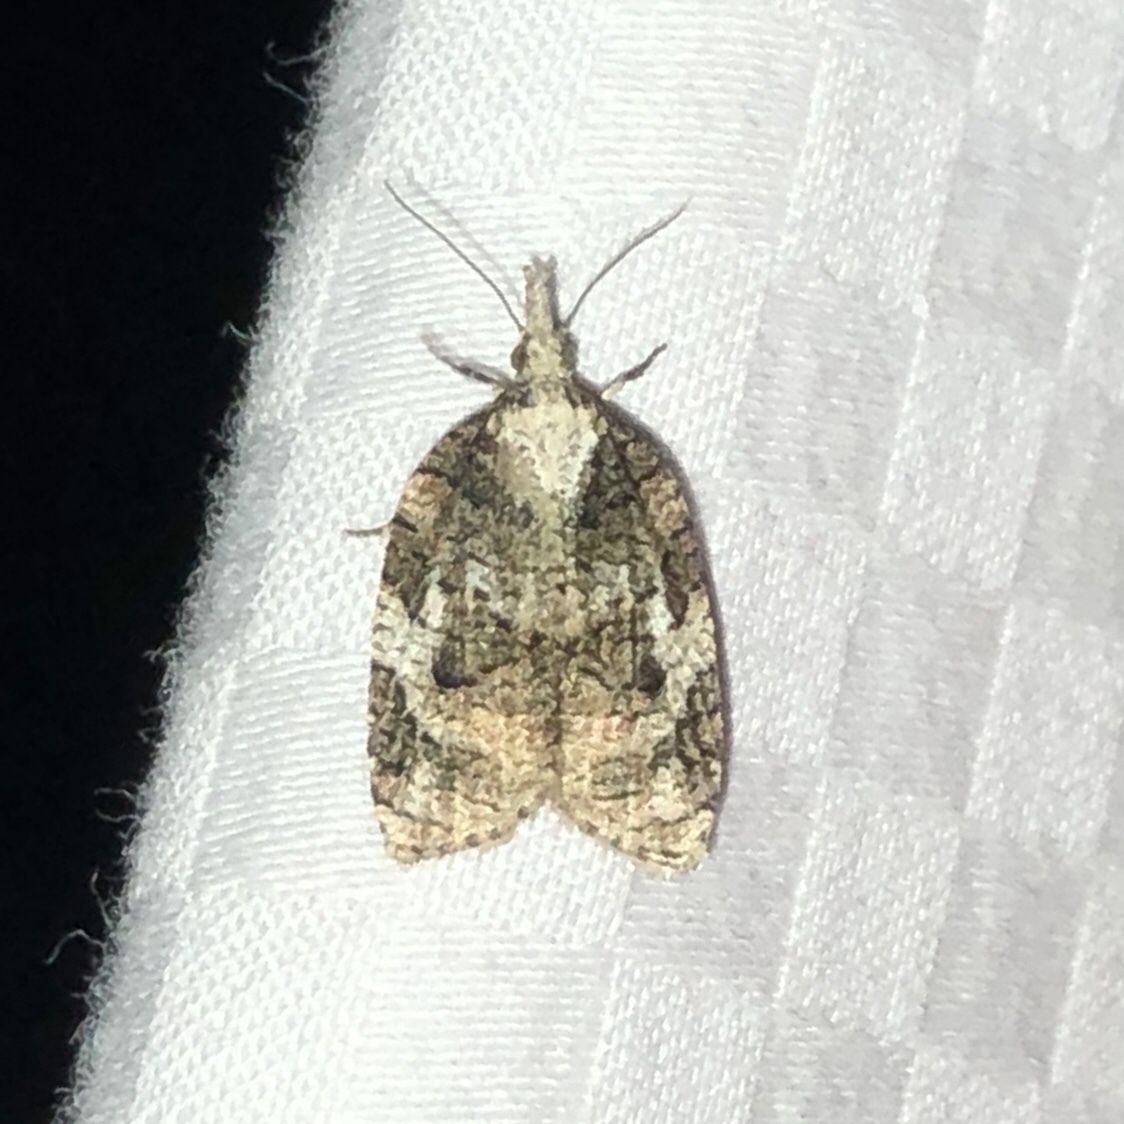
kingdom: Animalia
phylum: Arthropoda
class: Insecta
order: Lepidoptera
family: Tortricidae
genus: Platynota
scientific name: Platynota exasperatana
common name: Exasperating platynota moth
